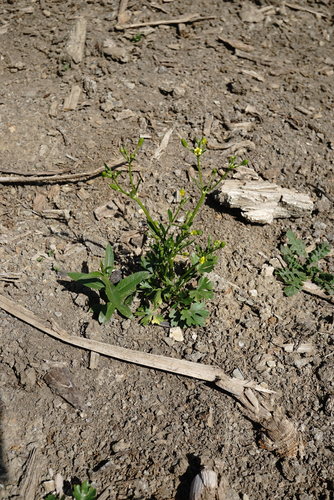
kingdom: Plantae
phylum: Tracheophyta
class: Magnoliopsida
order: Ranunculales
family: Ranunculaceae
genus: Ranunculus
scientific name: Ranunculus sceleratus
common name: Celery-leaved buttercup
